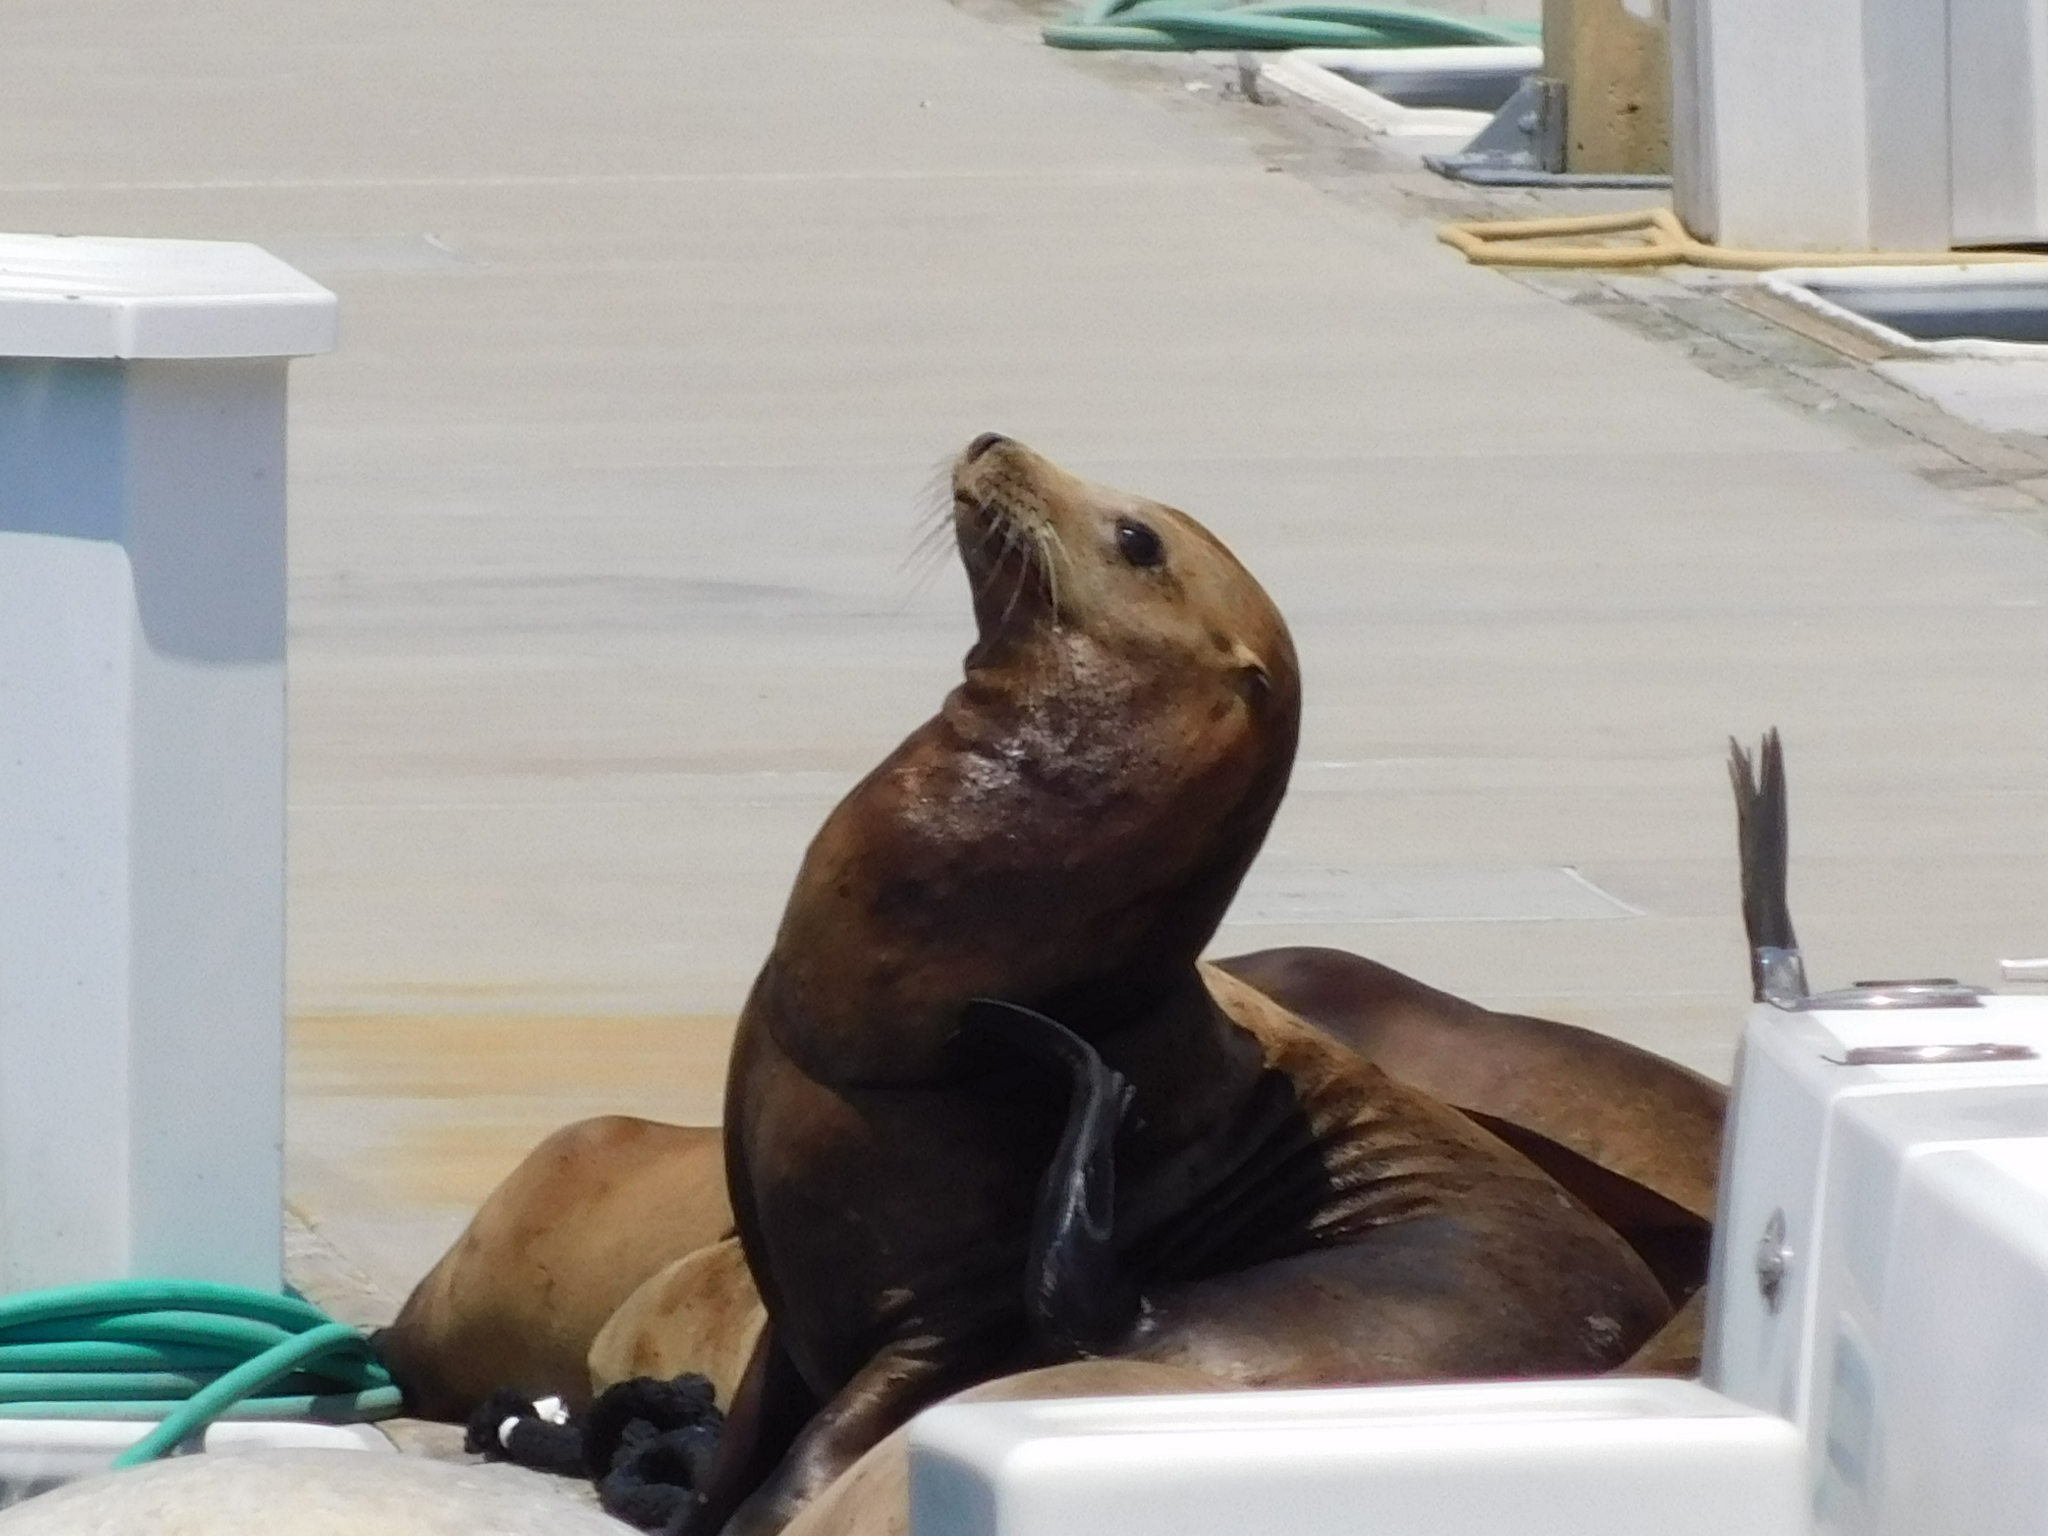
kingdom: Animalia
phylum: Chordata
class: Mammalia
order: Carnivora
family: Otariidae
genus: Zalophus
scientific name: Zalophus californianus
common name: California sea lion
